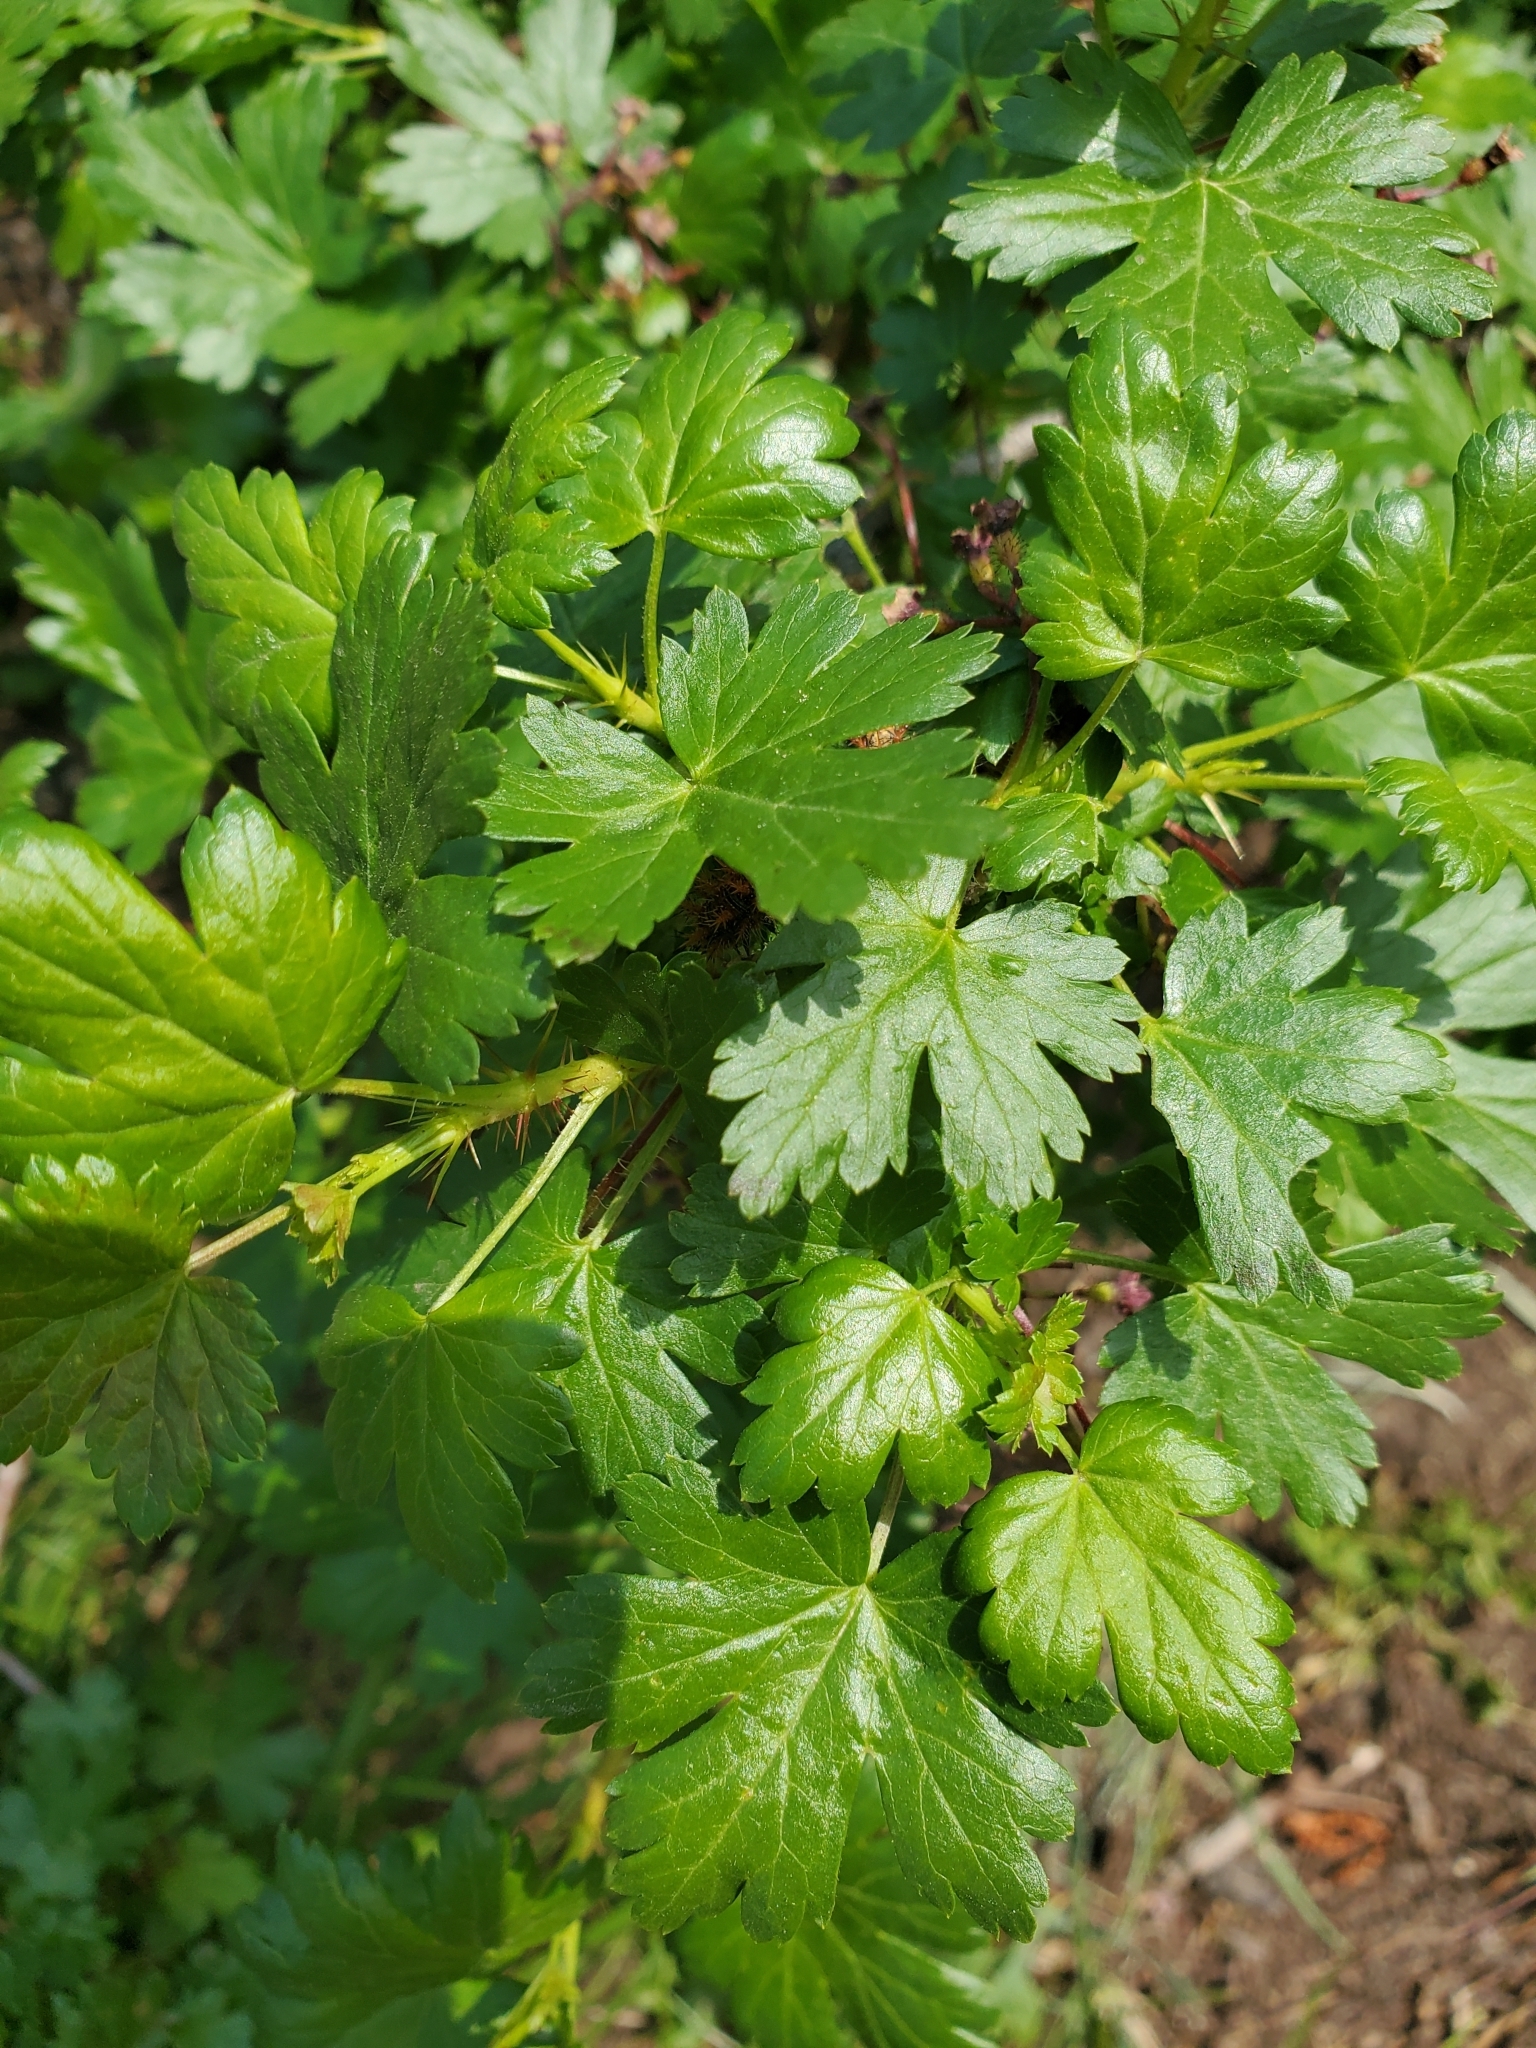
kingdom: Plantae
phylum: Tracheophyta
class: Magnoliopsida
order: Saxifragales
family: Grossulariaceae
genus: Ribes
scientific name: Ribes lacustre
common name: Black gooseberry
